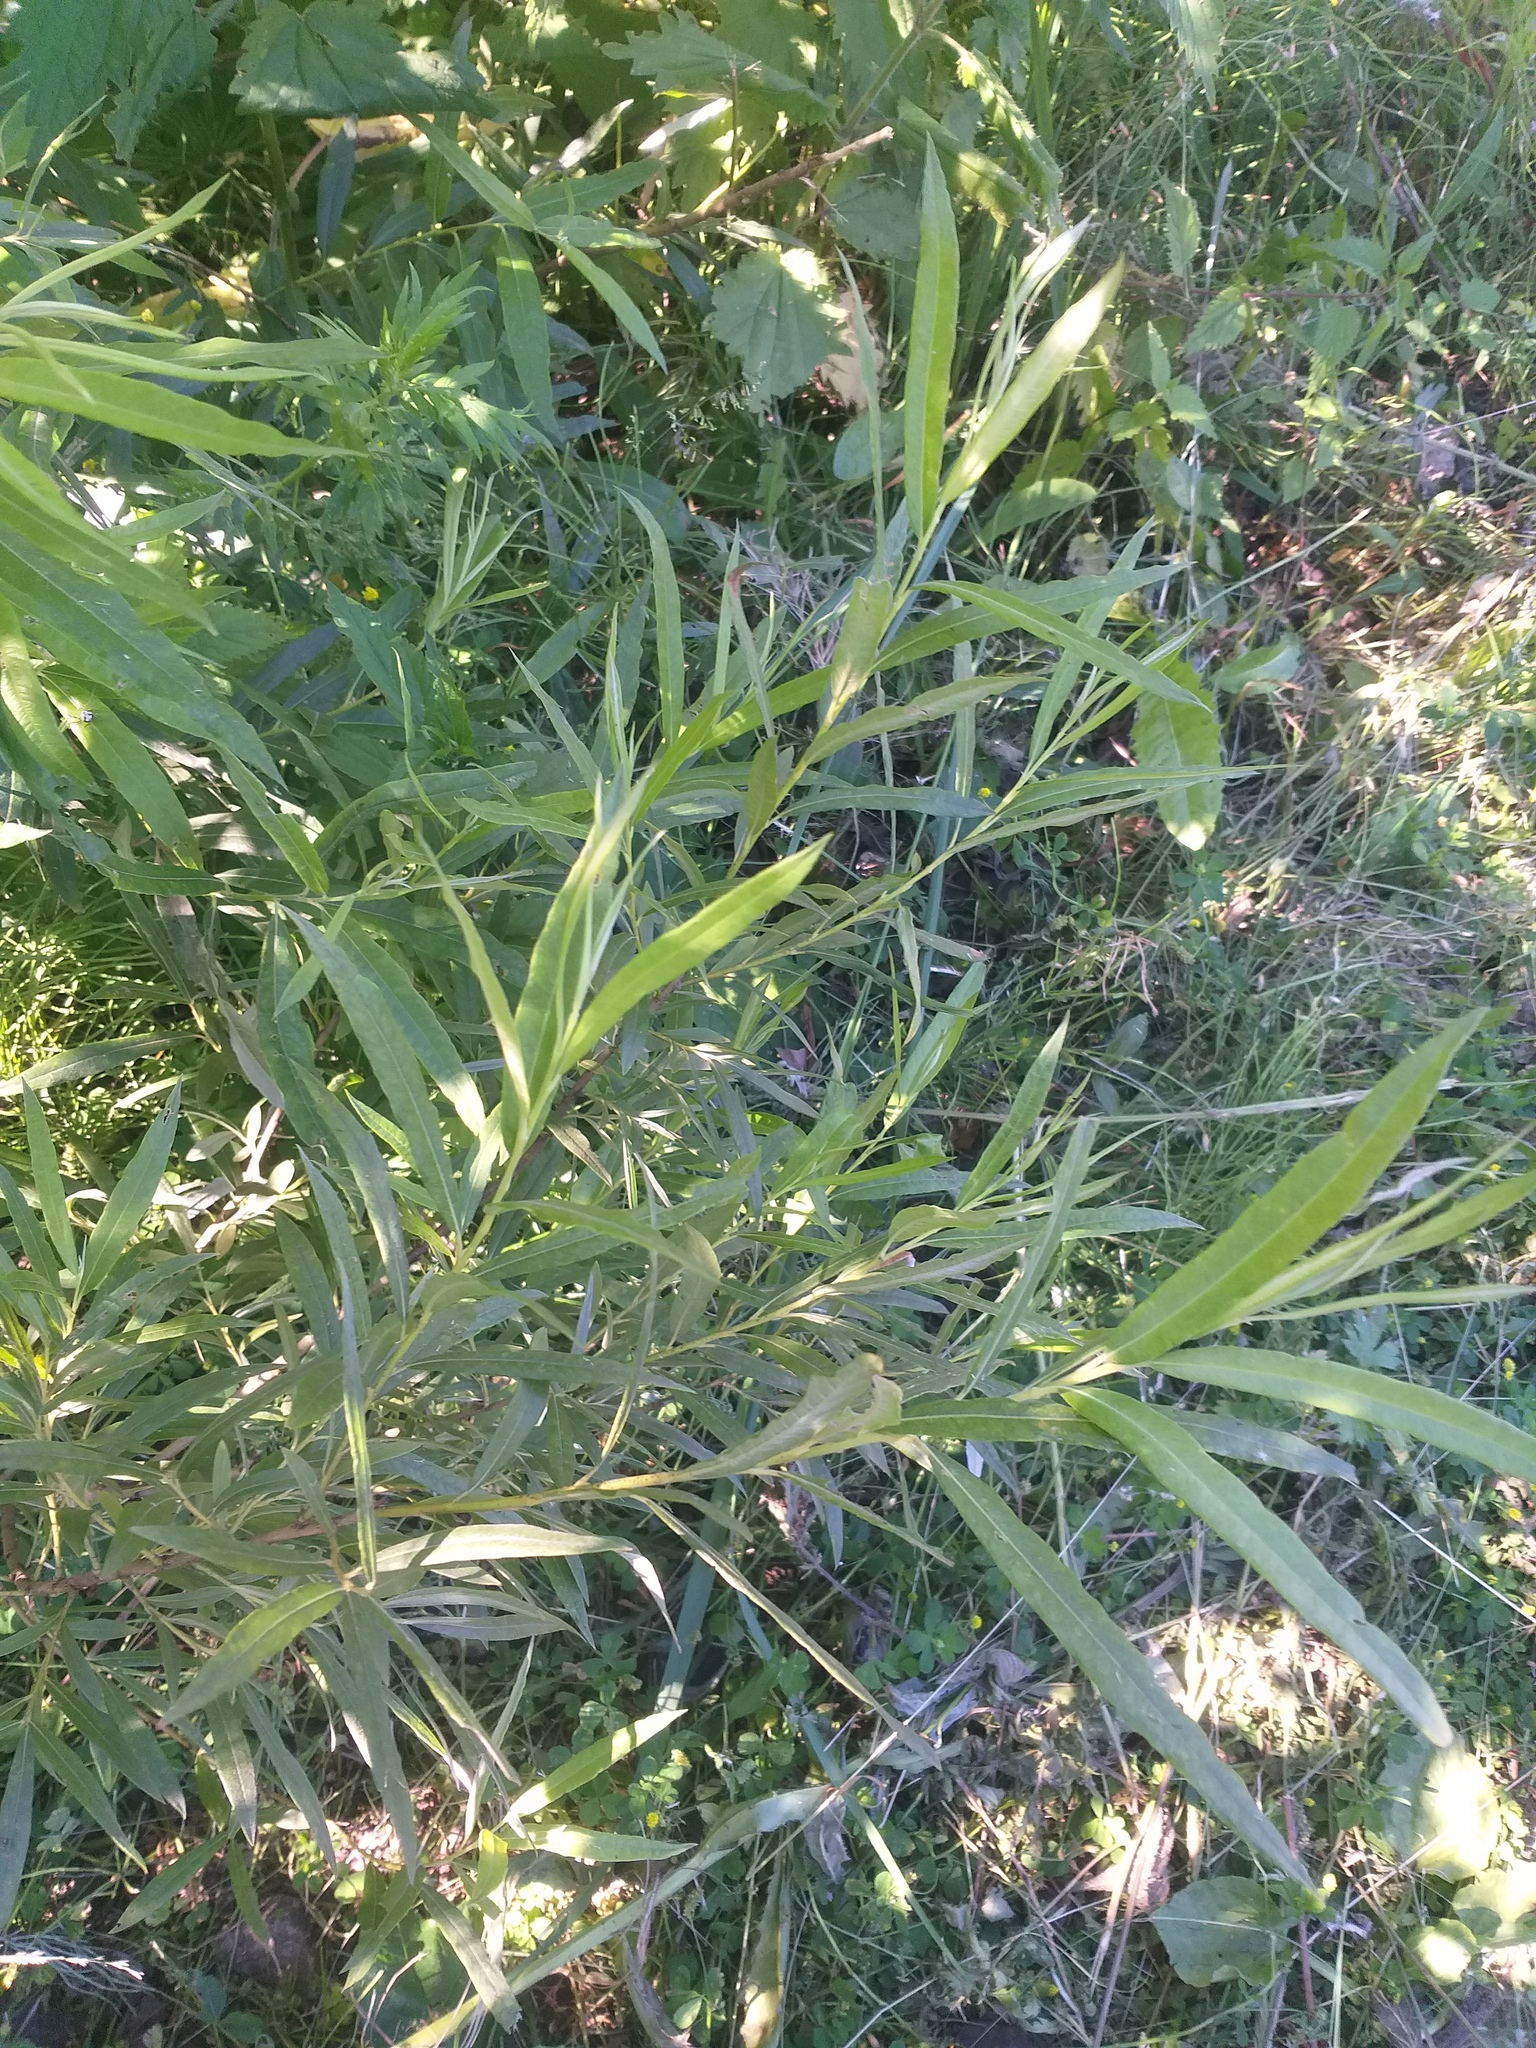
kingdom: Plantae
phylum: Tracheophyta
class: Magnoliopsida
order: Malpighiales
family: Salicaceae
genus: Salix
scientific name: Salix viminalis
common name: Osier
